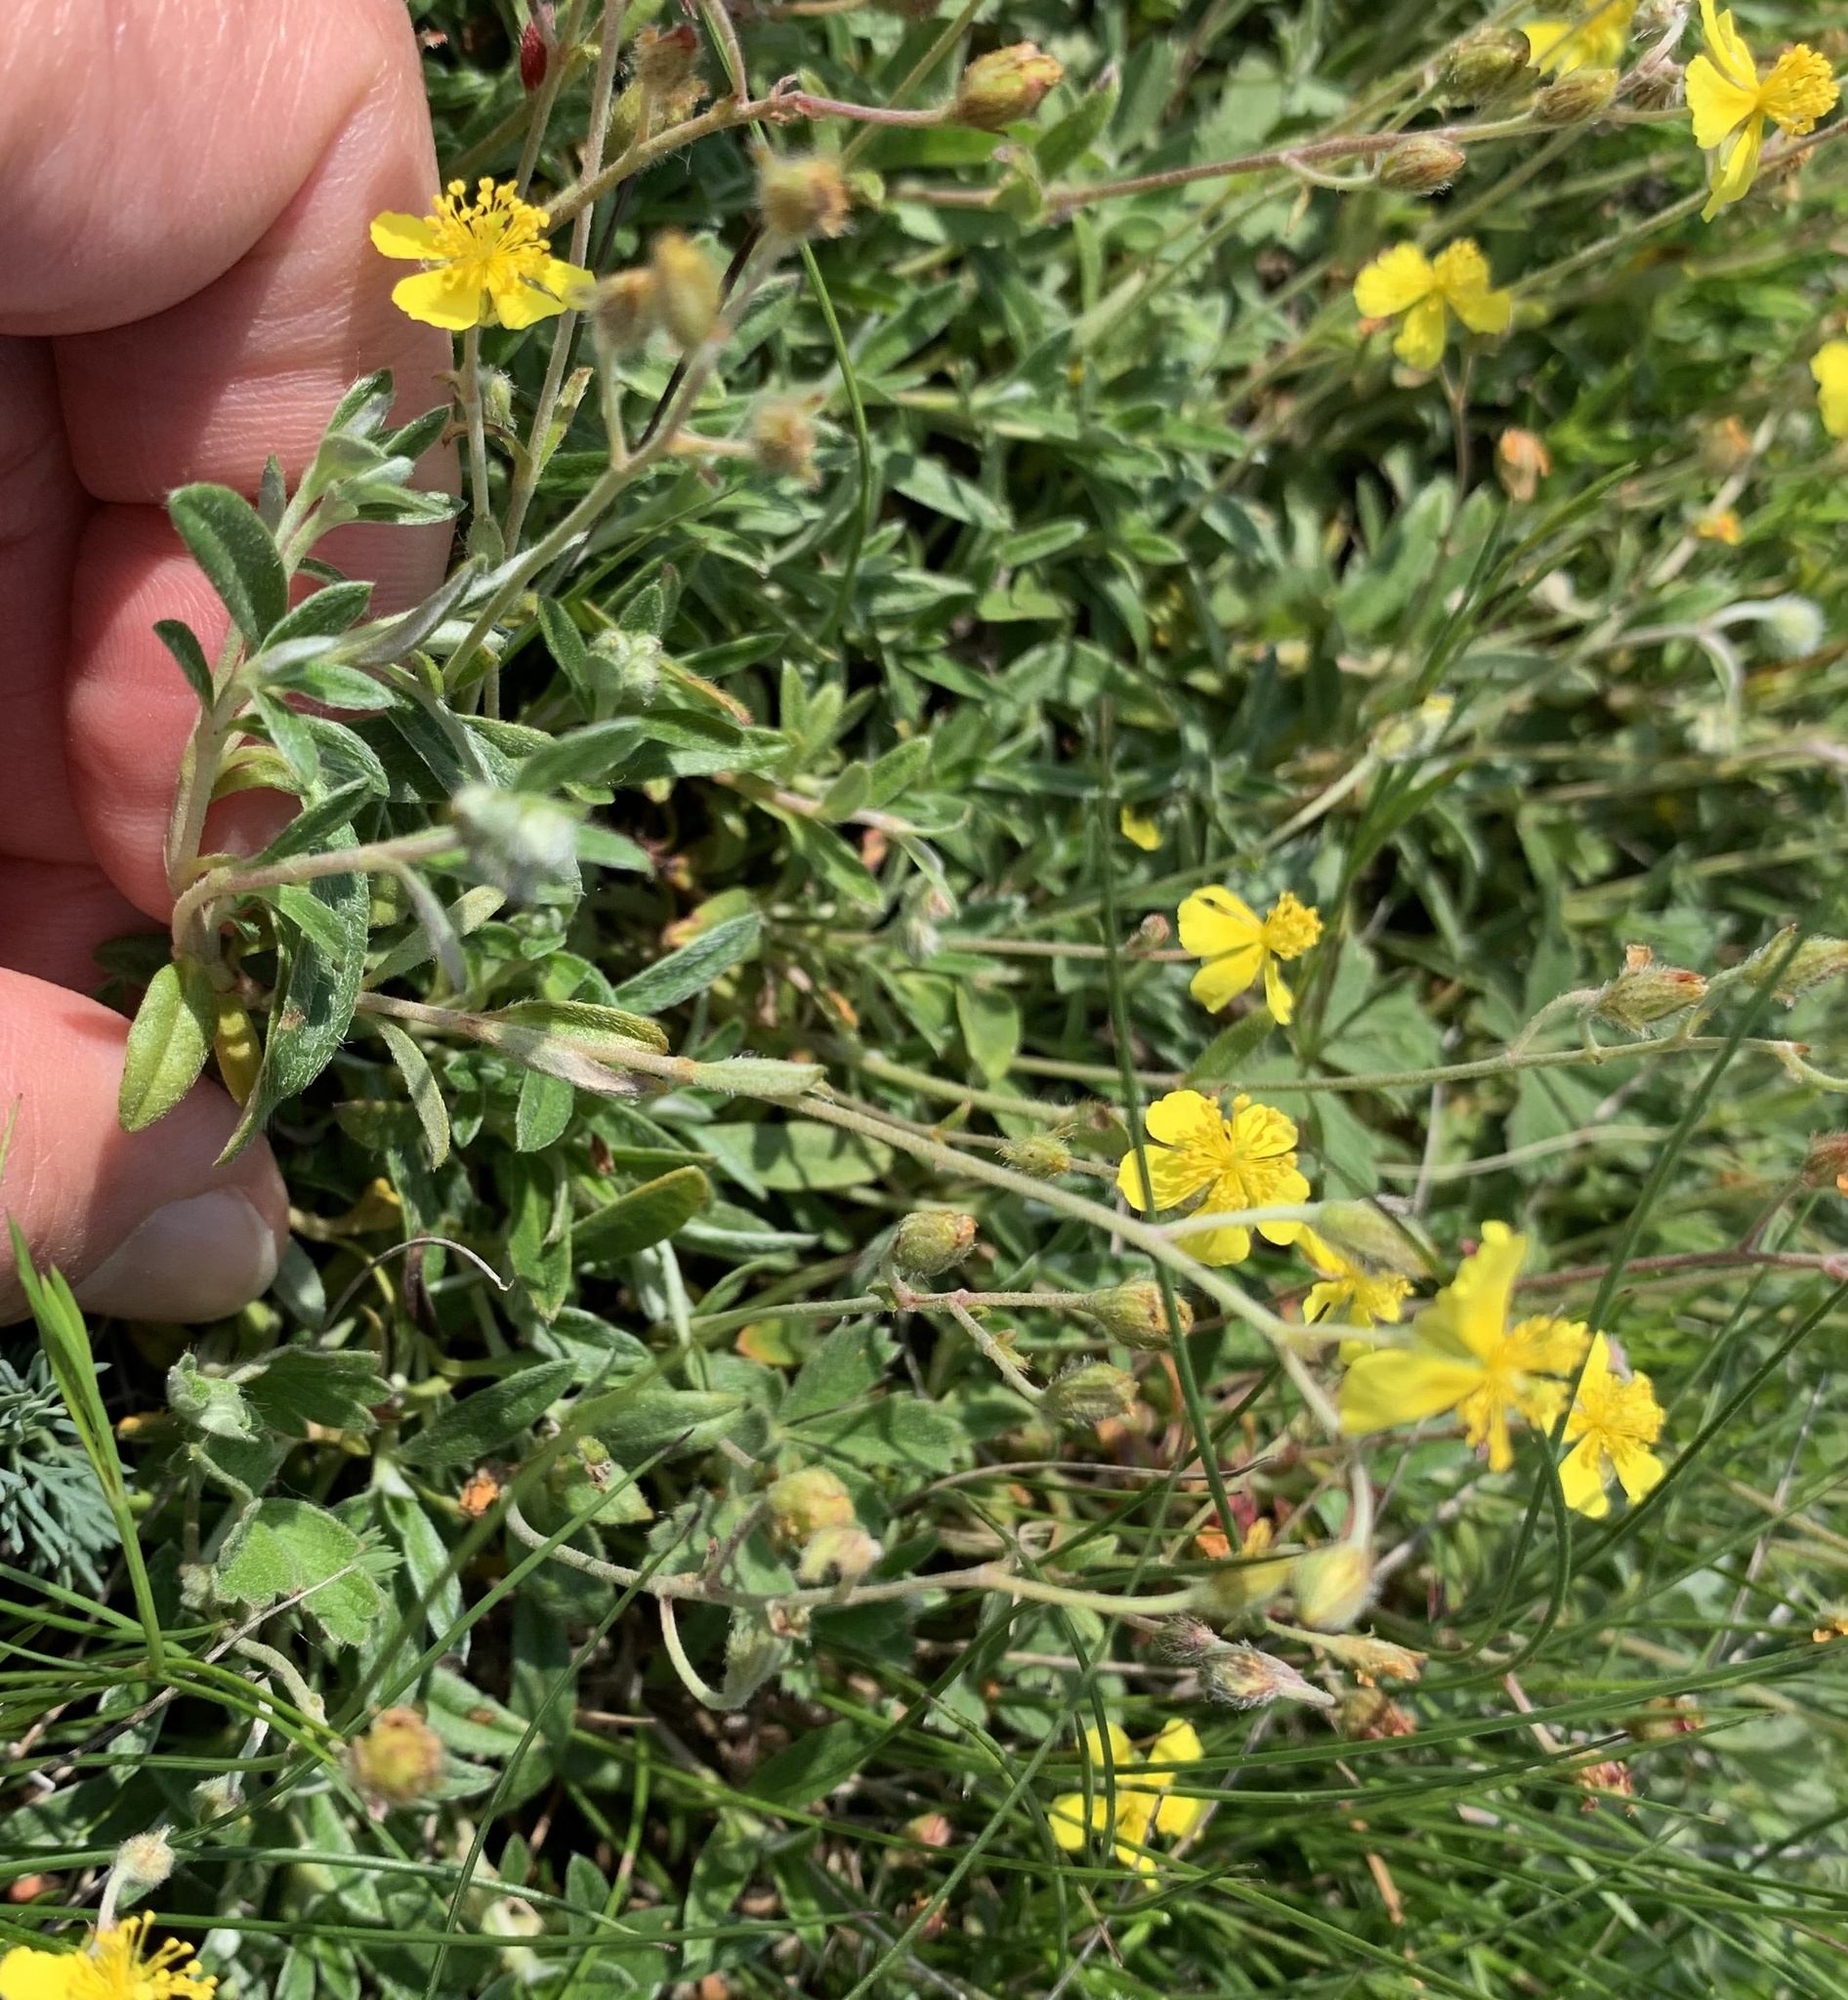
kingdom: Plantae
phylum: Tracheophyta
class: Magnoliopsida
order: Malvales
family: Cistaceae
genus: Helianthemum
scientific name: Helianthemum canum
